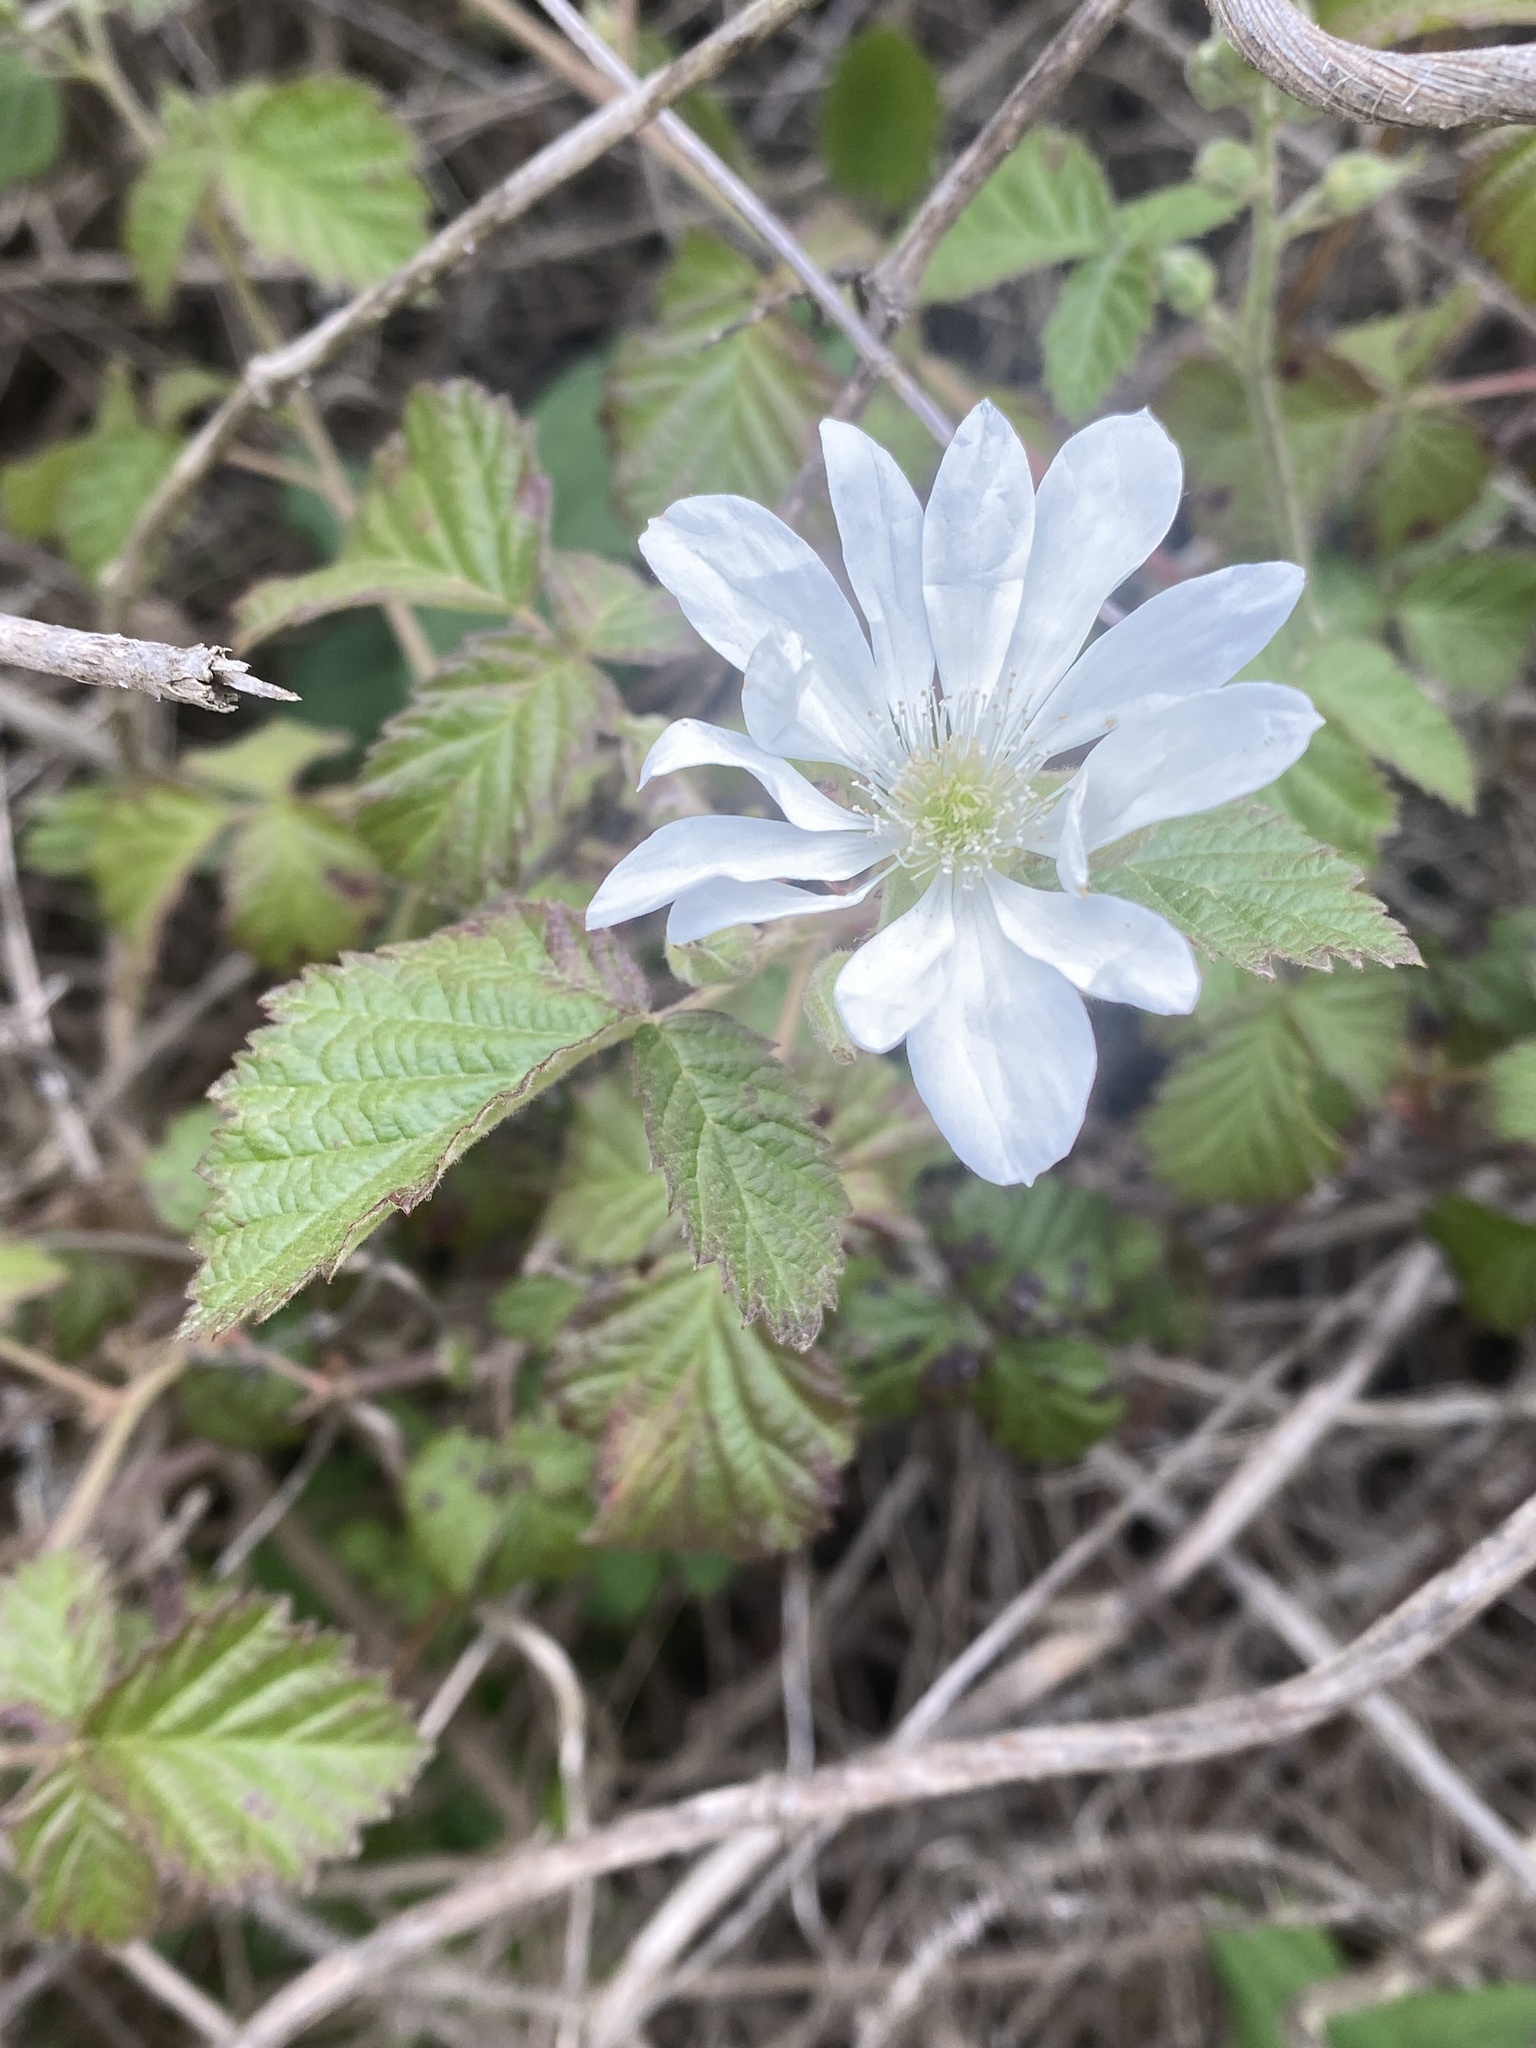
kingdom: Plantae
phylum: Tracheophyta
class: Magnoliopsida
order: Rosales
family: Rosaceae
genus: Rubus
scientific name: Rubus ursinus
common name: Pacific blackberry
